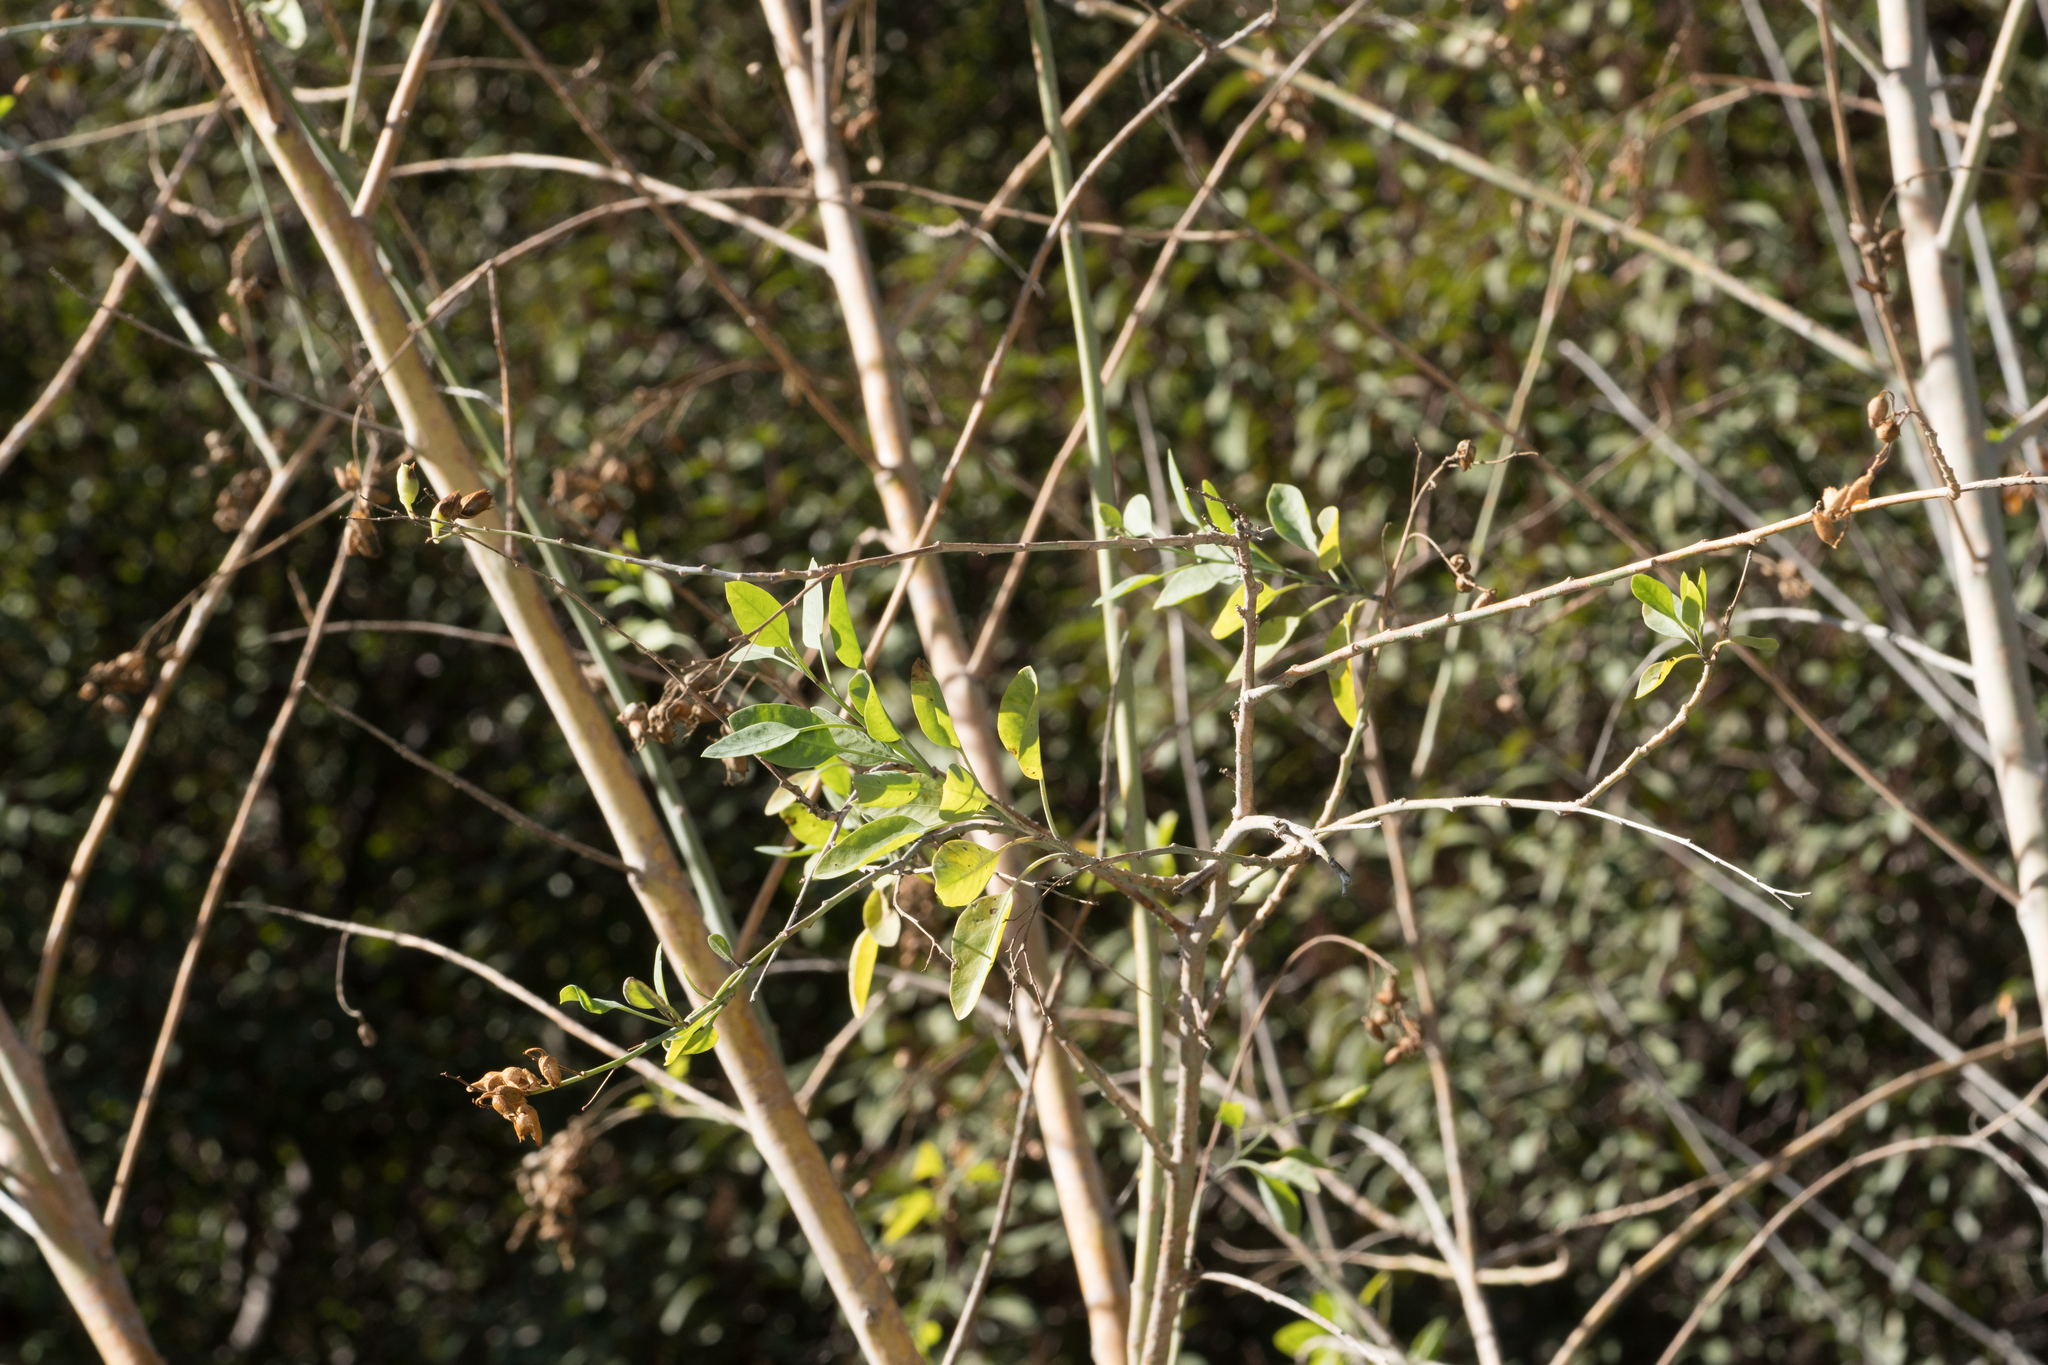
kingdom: Plantae
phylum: Tracheophyta
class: Magnoliopsida
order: Solanales
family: Solanaceae
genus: Nicotiana
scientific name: Nicotiana glauca
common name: Tree tobacco
